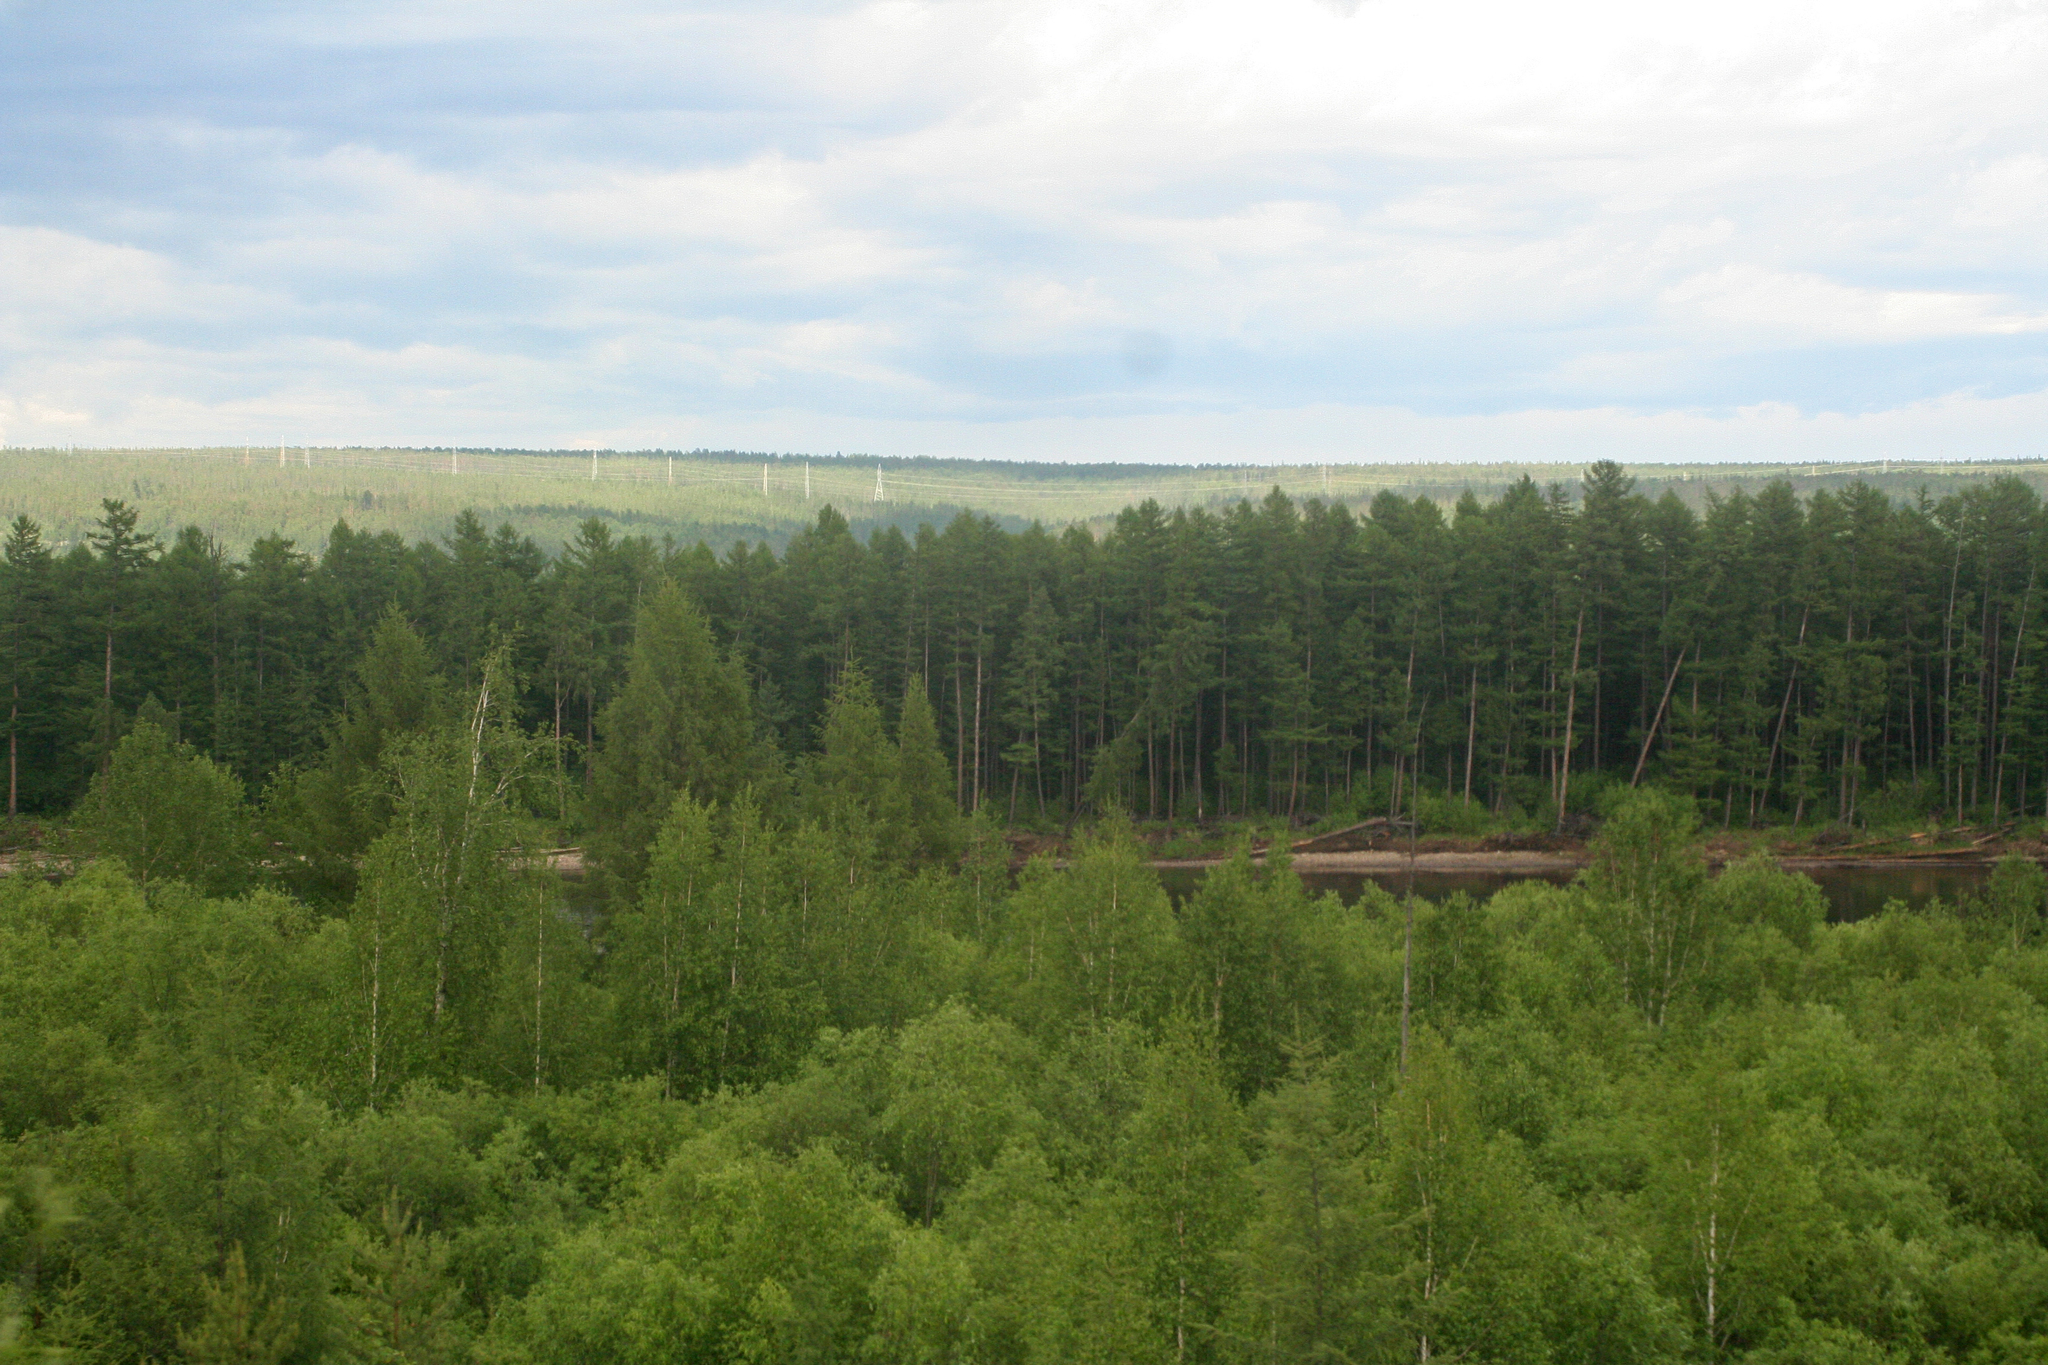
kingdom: Plantae
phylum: Tracheophyta
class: Pinopsida
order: Pinales
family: Pinaceae
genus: Larix
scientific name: Larix gmelinii
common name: Dahurian larch
